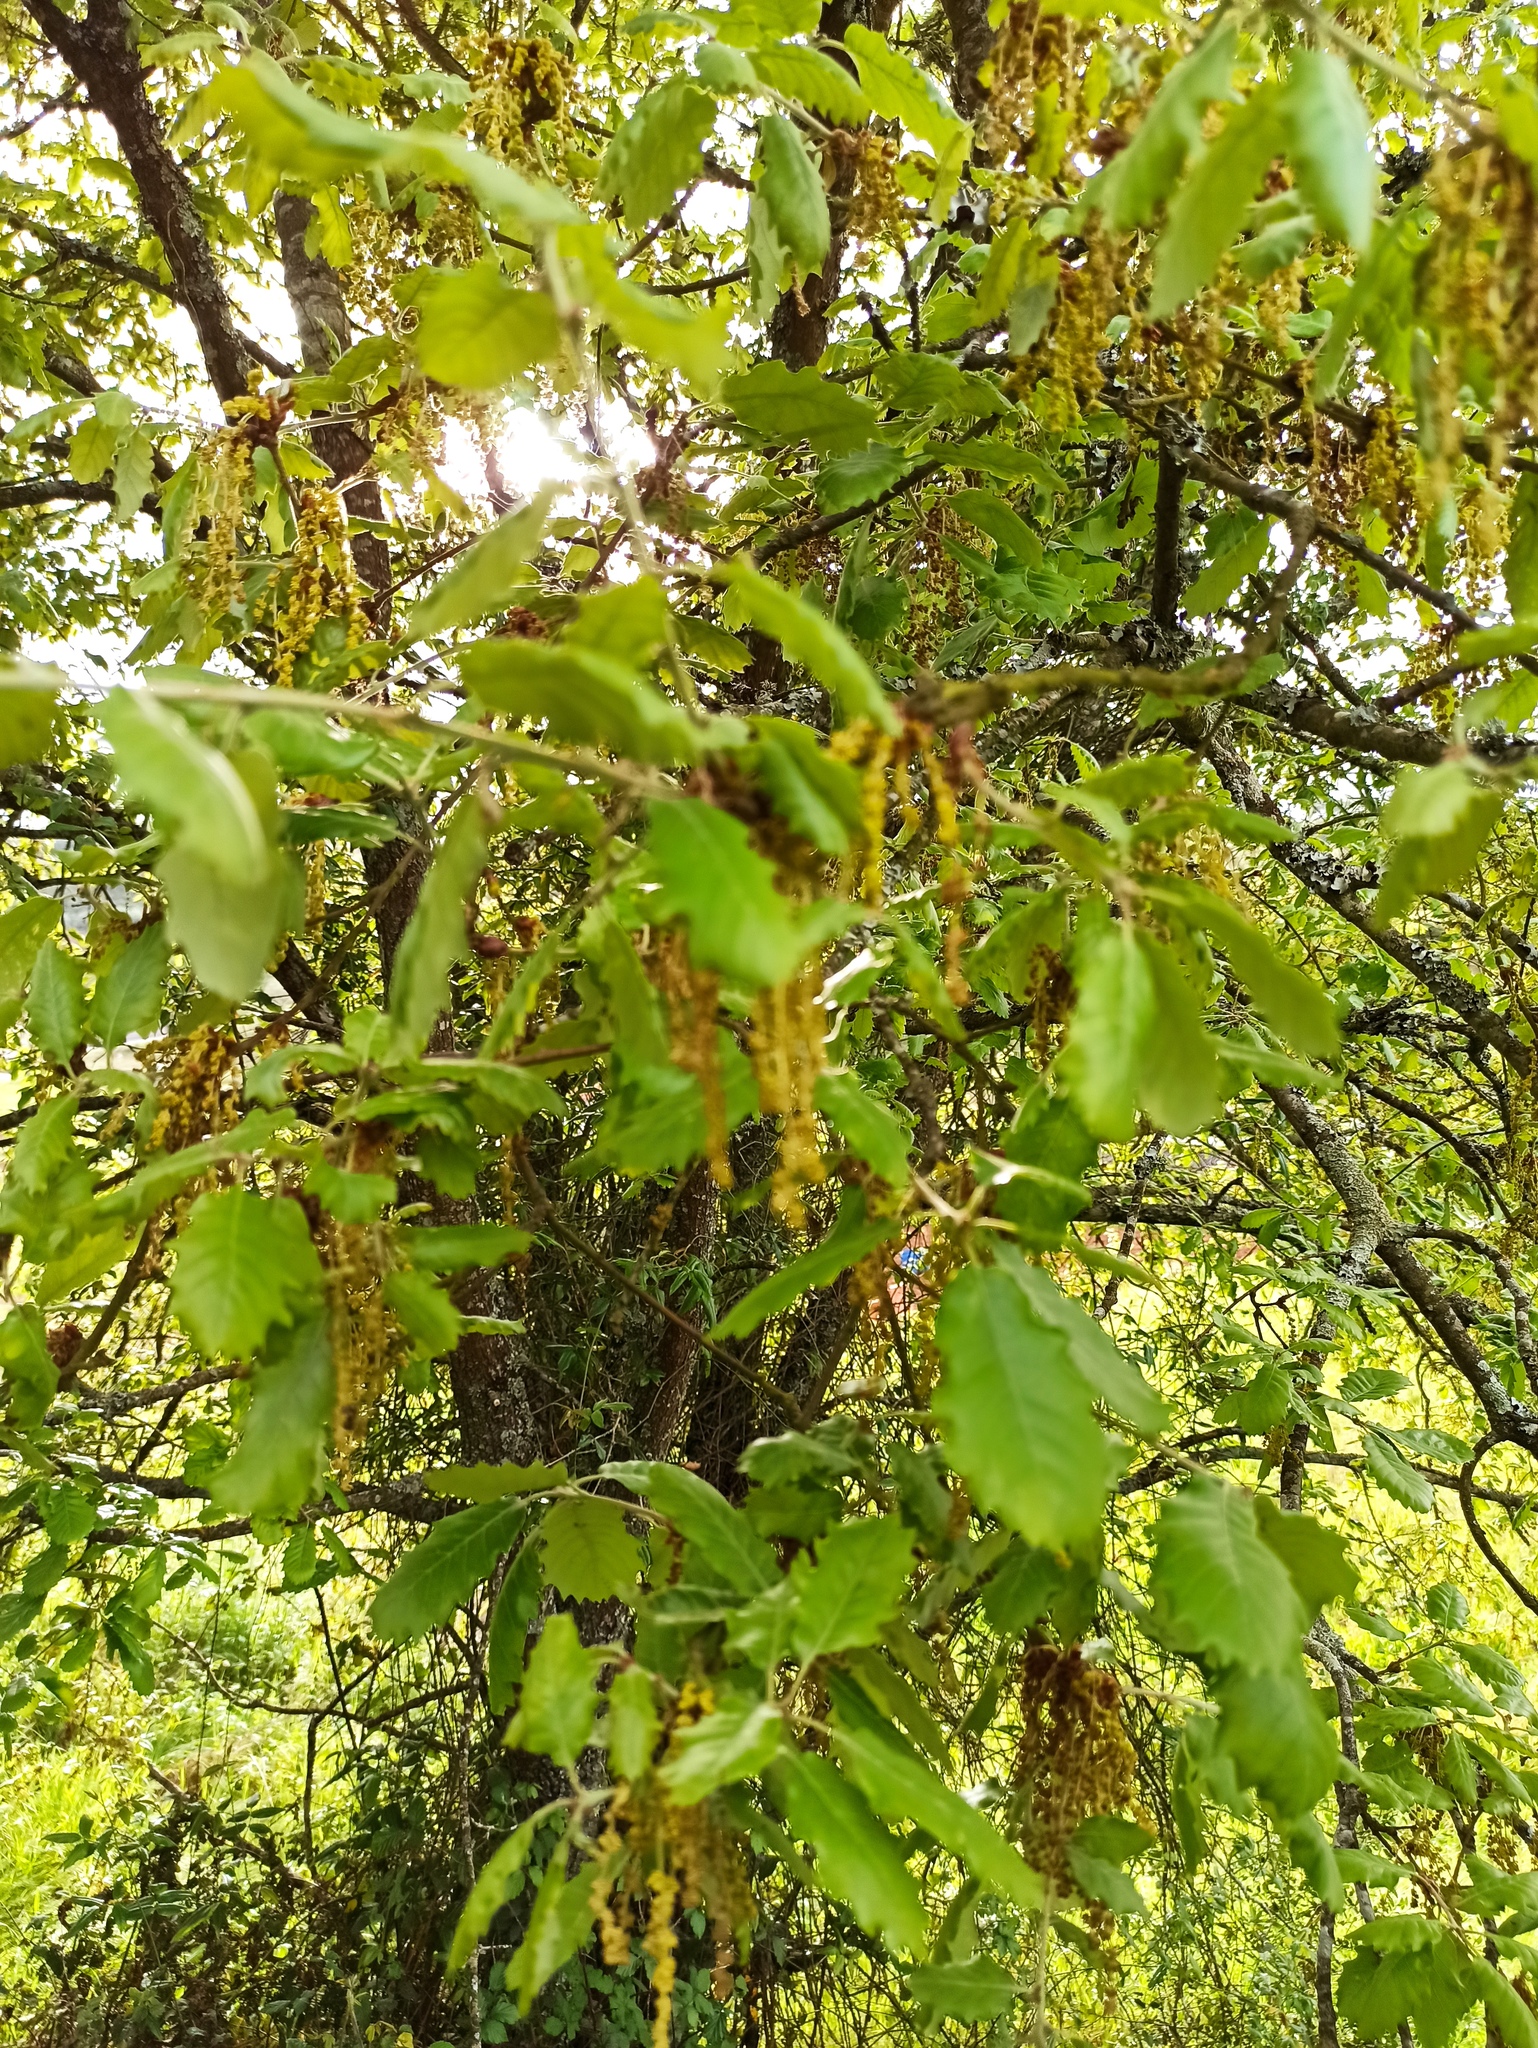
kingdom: Plantae
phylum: Tracheophyta
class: Magnoliopsida
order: Fagales
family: Fagaceae
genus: Quercus
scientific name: Quercus faginea
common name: Gall oak tree
